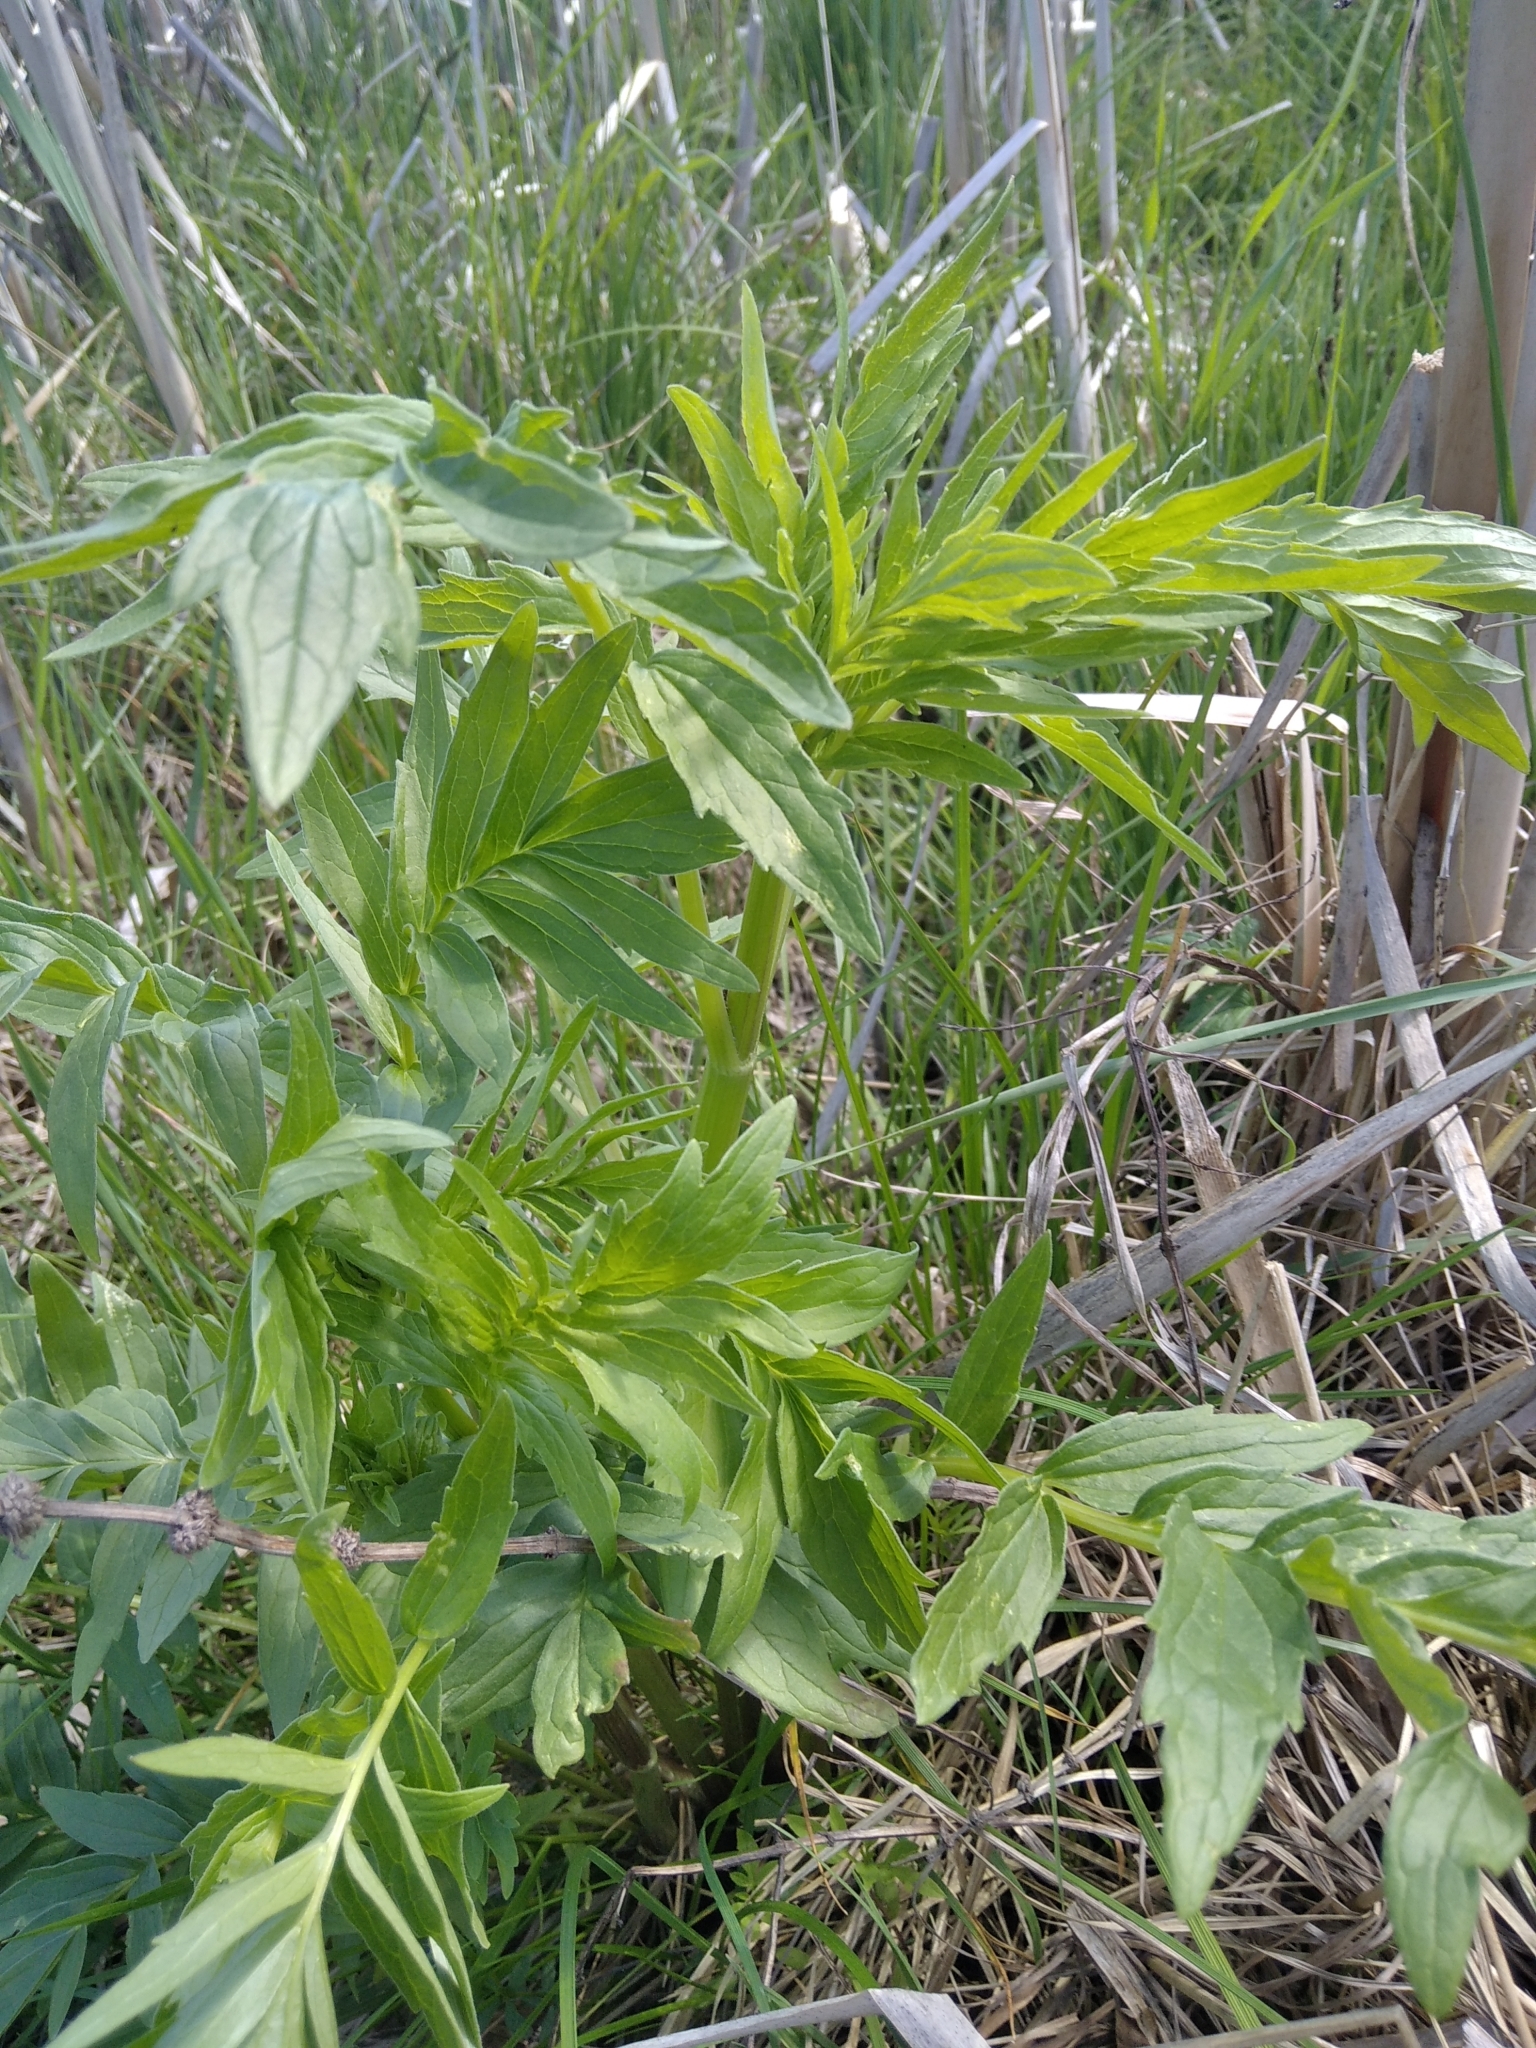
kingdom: Plantae
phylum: Tracheophyta
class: Magnoliopsida
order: Dipsacales
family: Caprifoliaceae
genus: Valeriana
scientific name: Valeriana officinalis
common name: Common valerian
